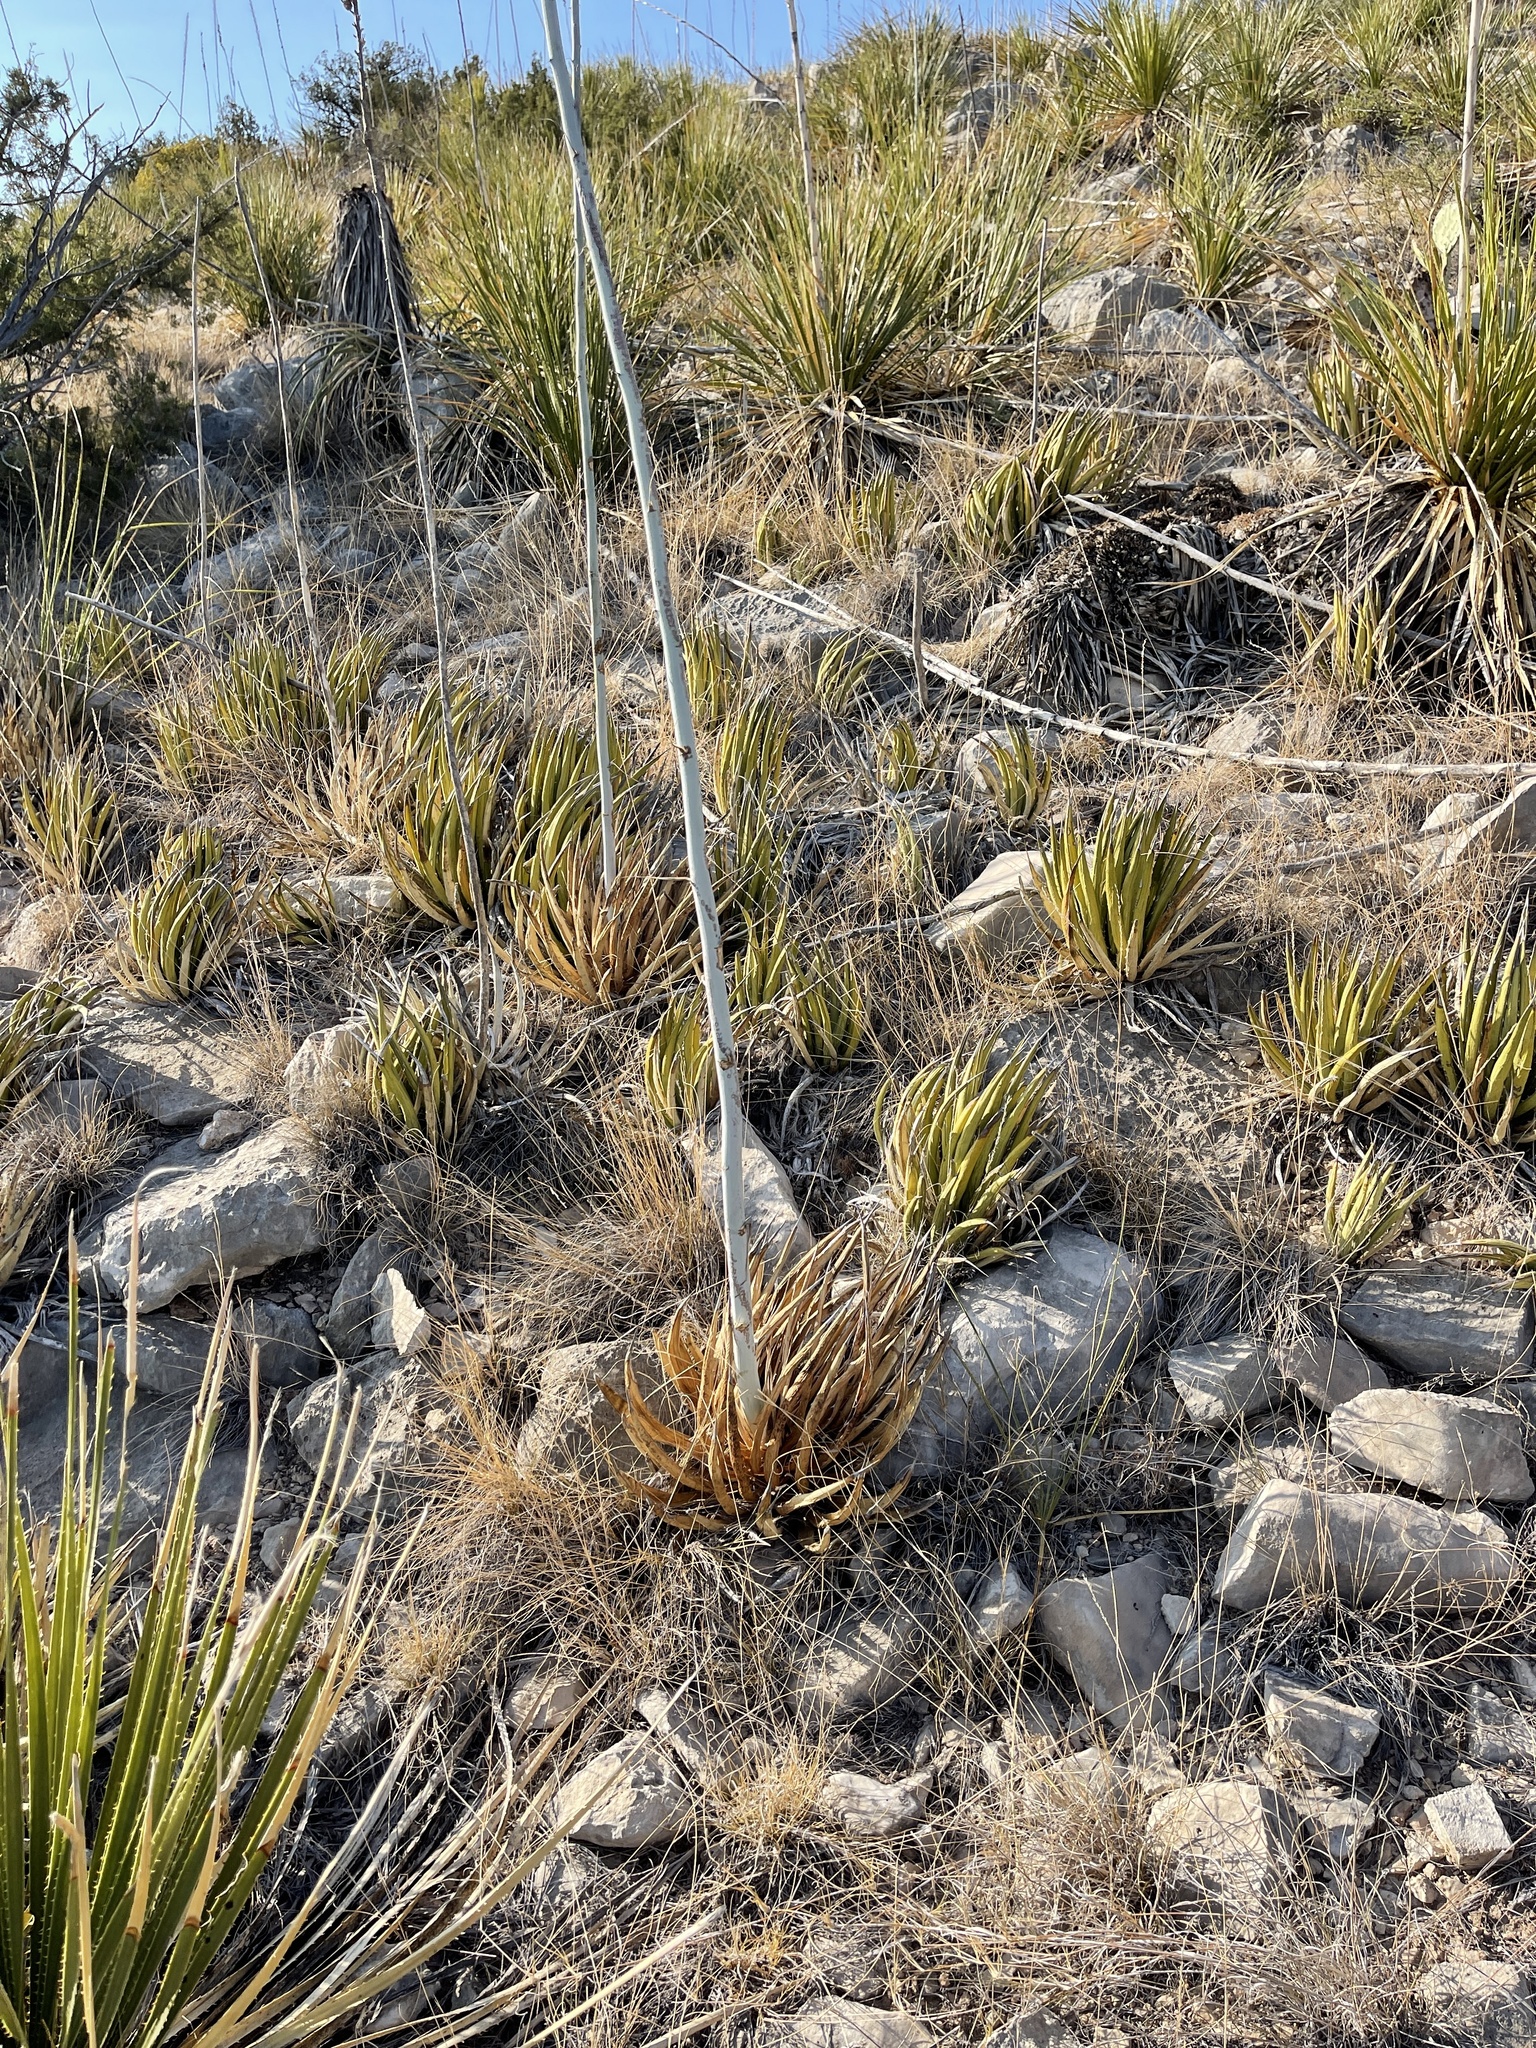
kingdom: Plantae
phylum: Tracheophyta
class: Liliopsida
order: Asparagales
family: Asparagaceae
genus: Agave
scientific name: Agave lechuguilla
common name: Lecheguilla agave
